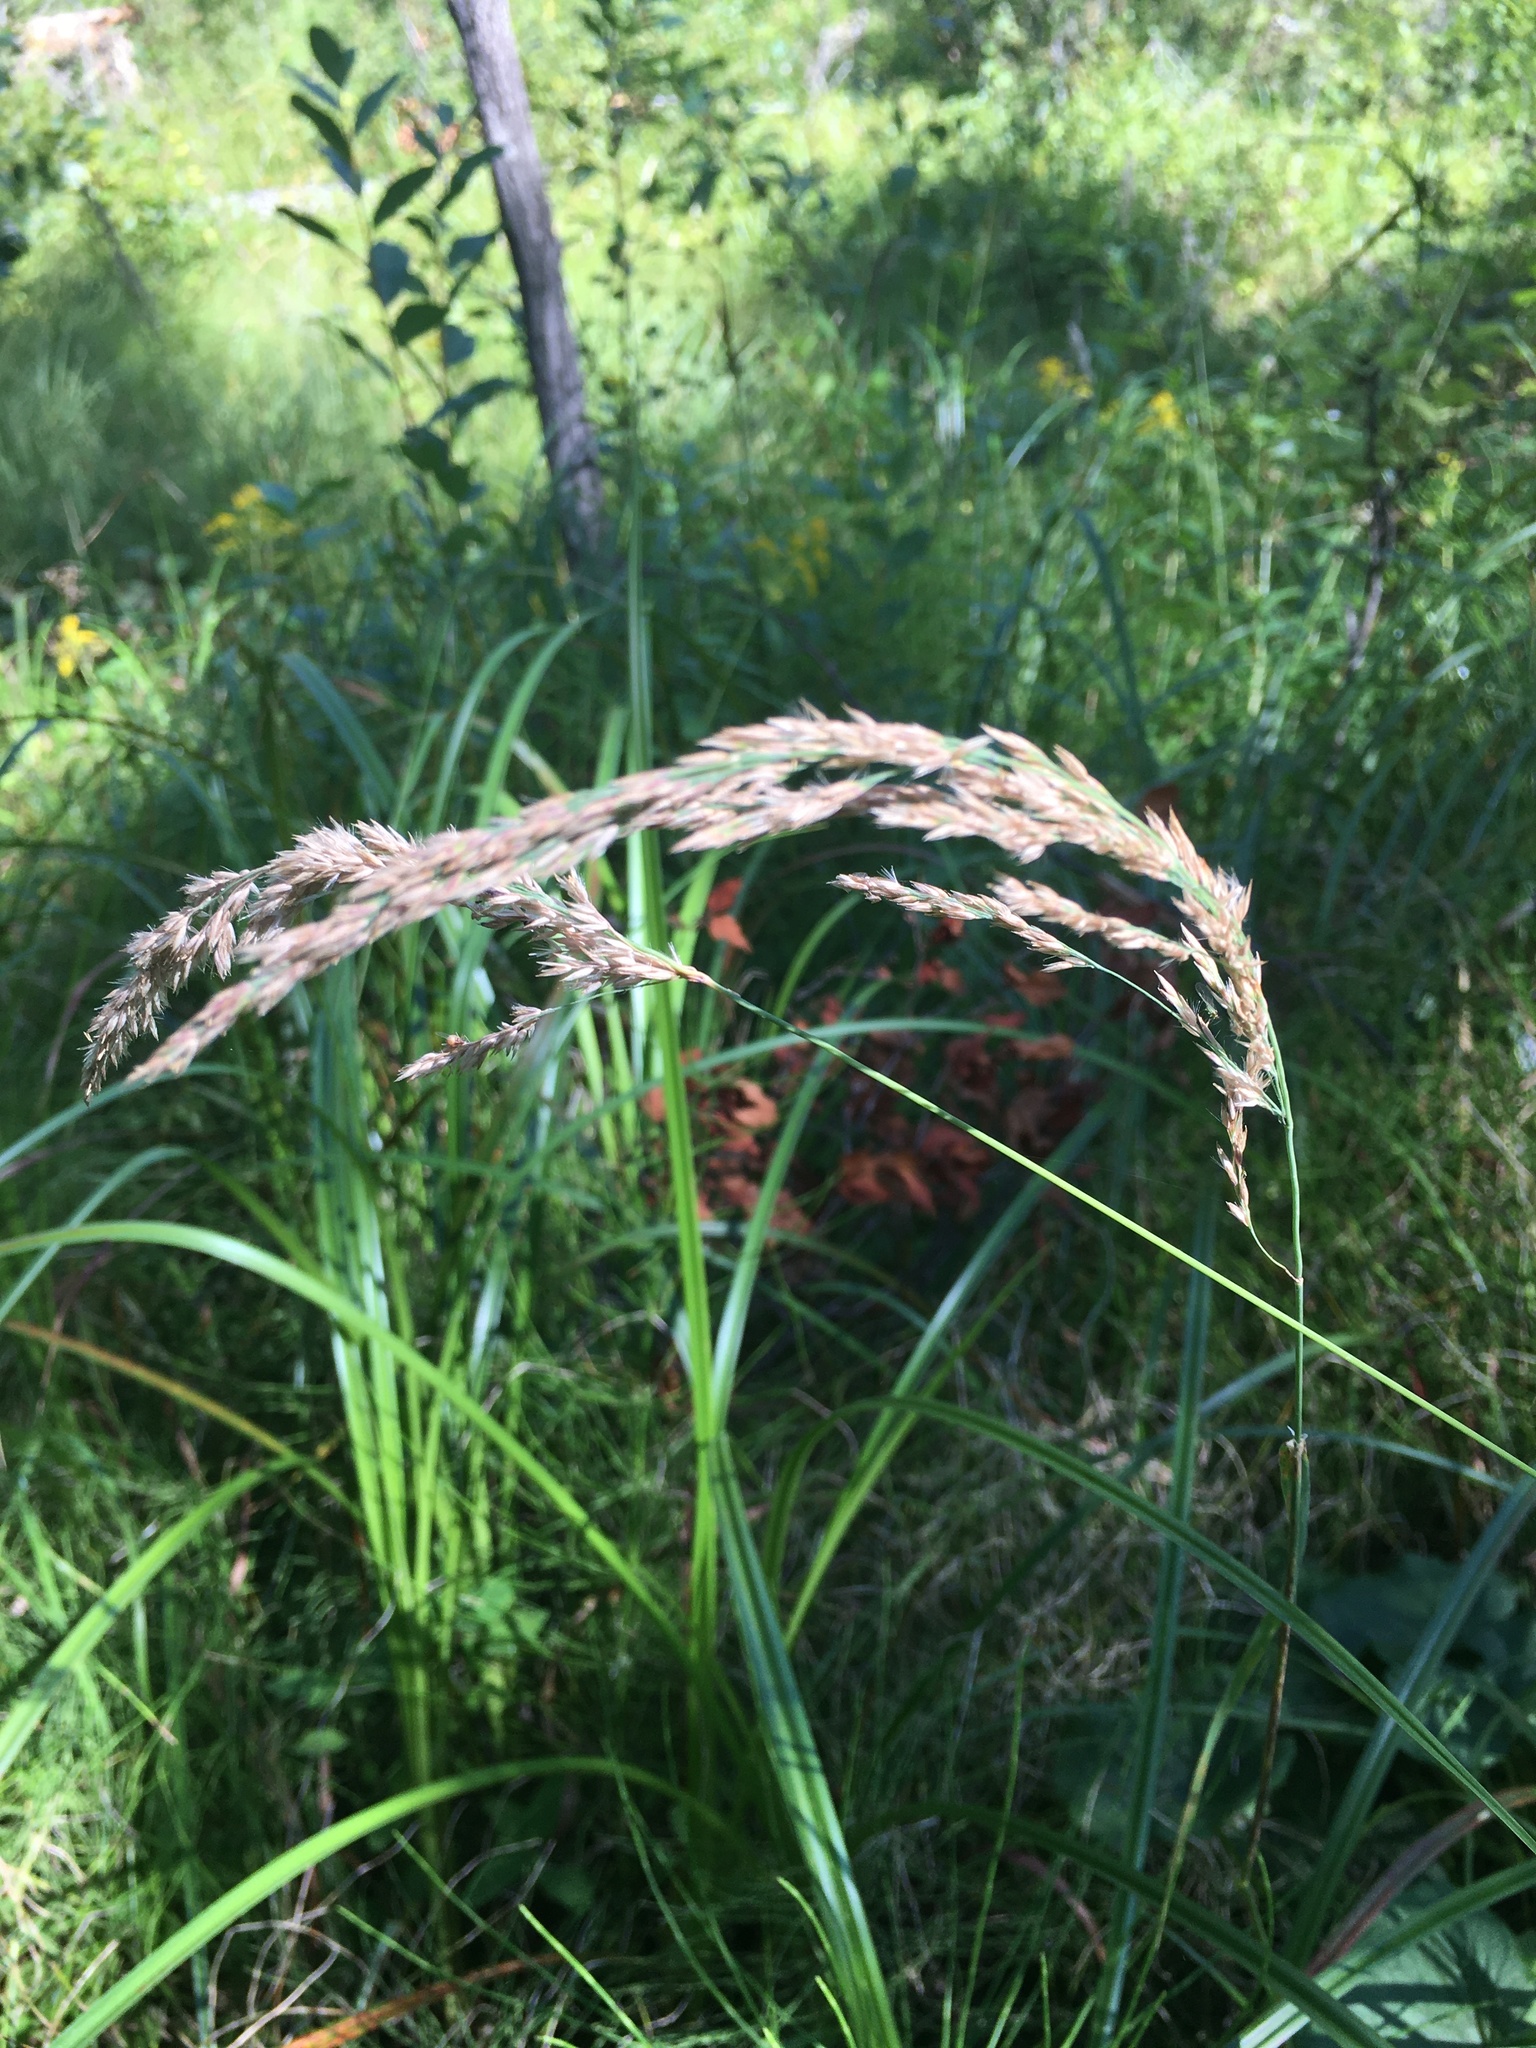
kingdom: Plantae
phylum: Tracheophyta
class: Liliopsida
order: Poales
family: Poaceae
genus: Calamagrostis
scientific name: Calamagrostis canadensis
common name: Canada bluejoint
